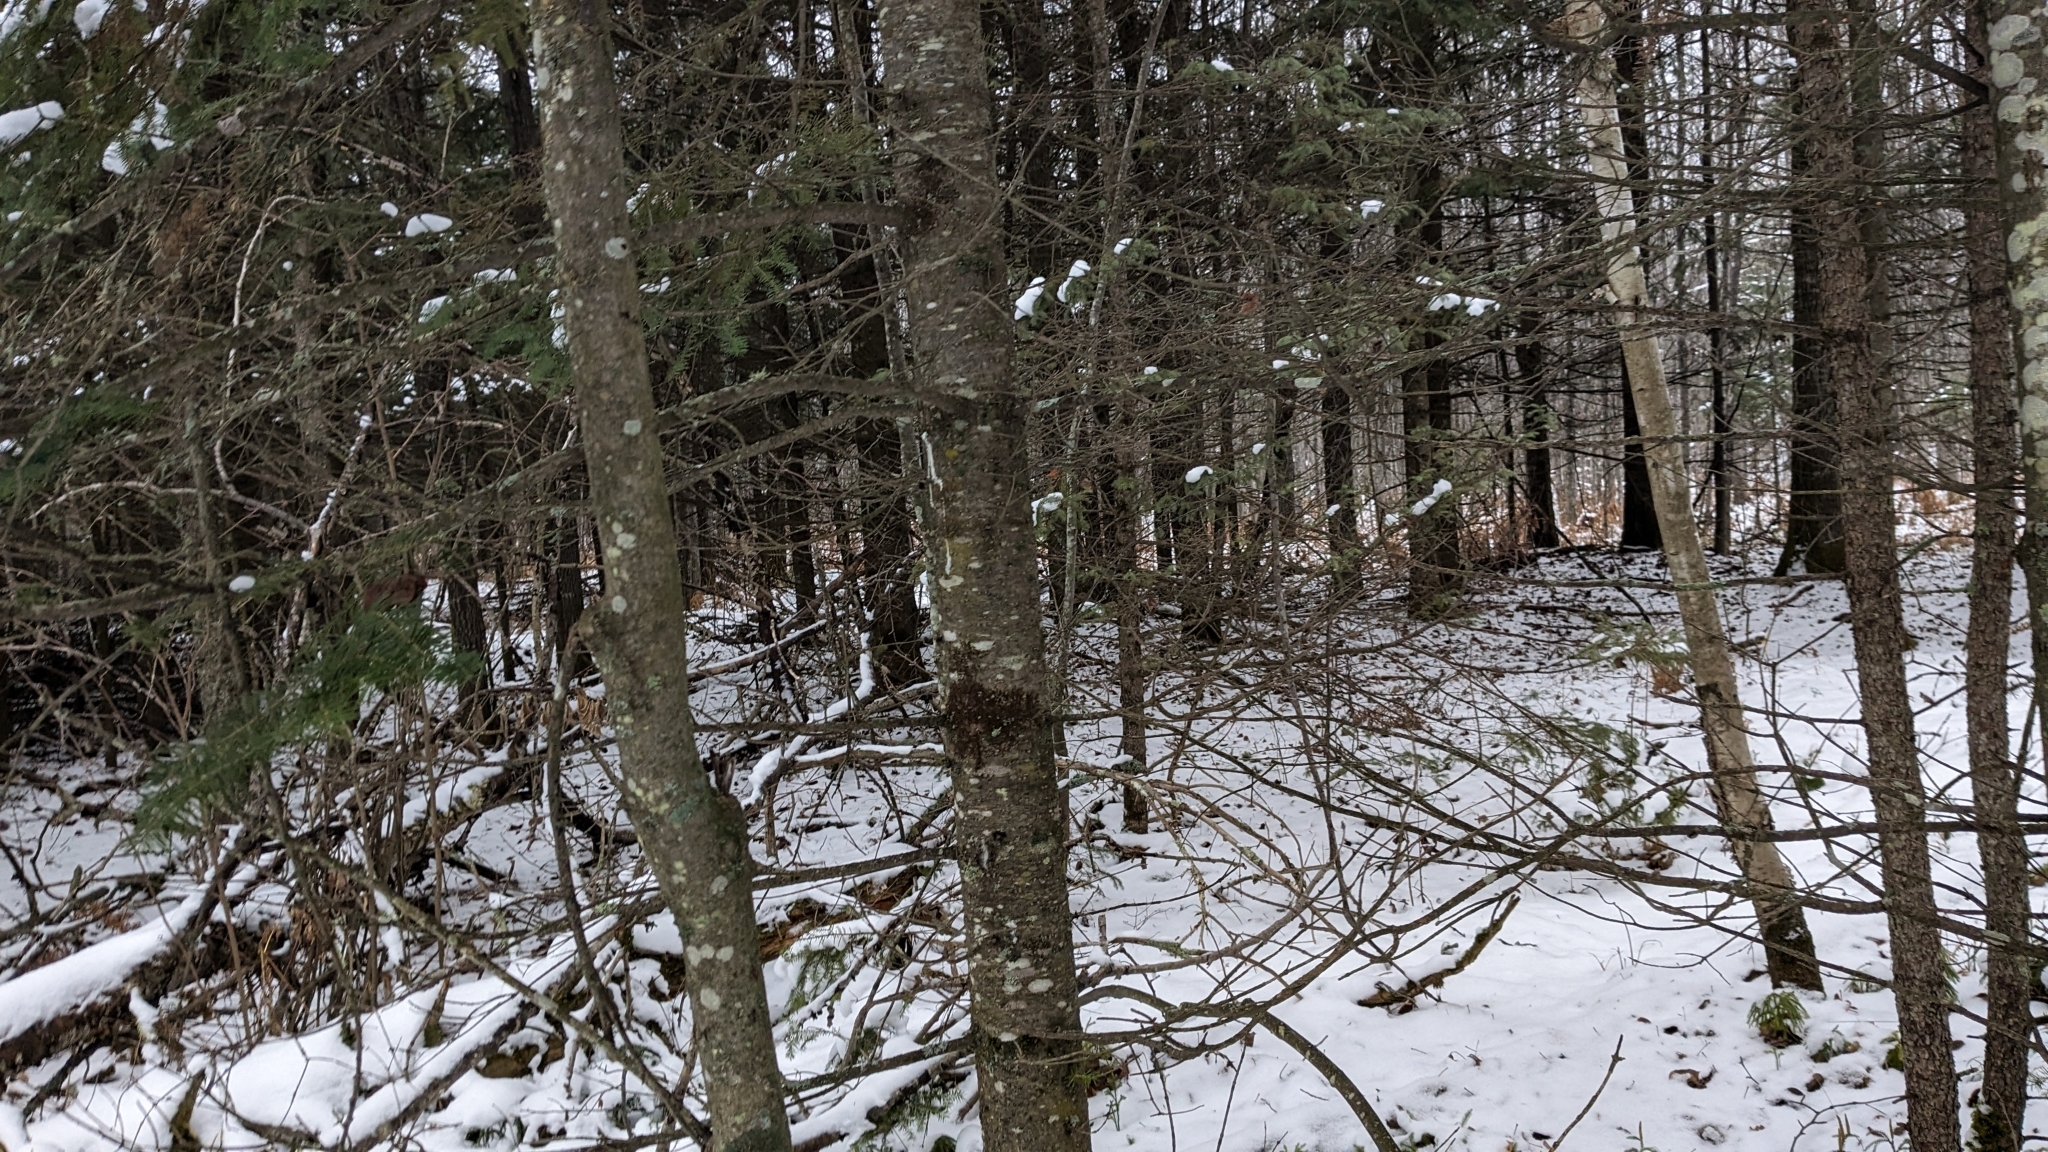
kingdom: Plantae
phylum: Tracheophyta
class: Pinopsida
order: Pinales
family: Pinaceae
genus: Abies
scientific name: Abies balsamea
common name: Balsam fir
